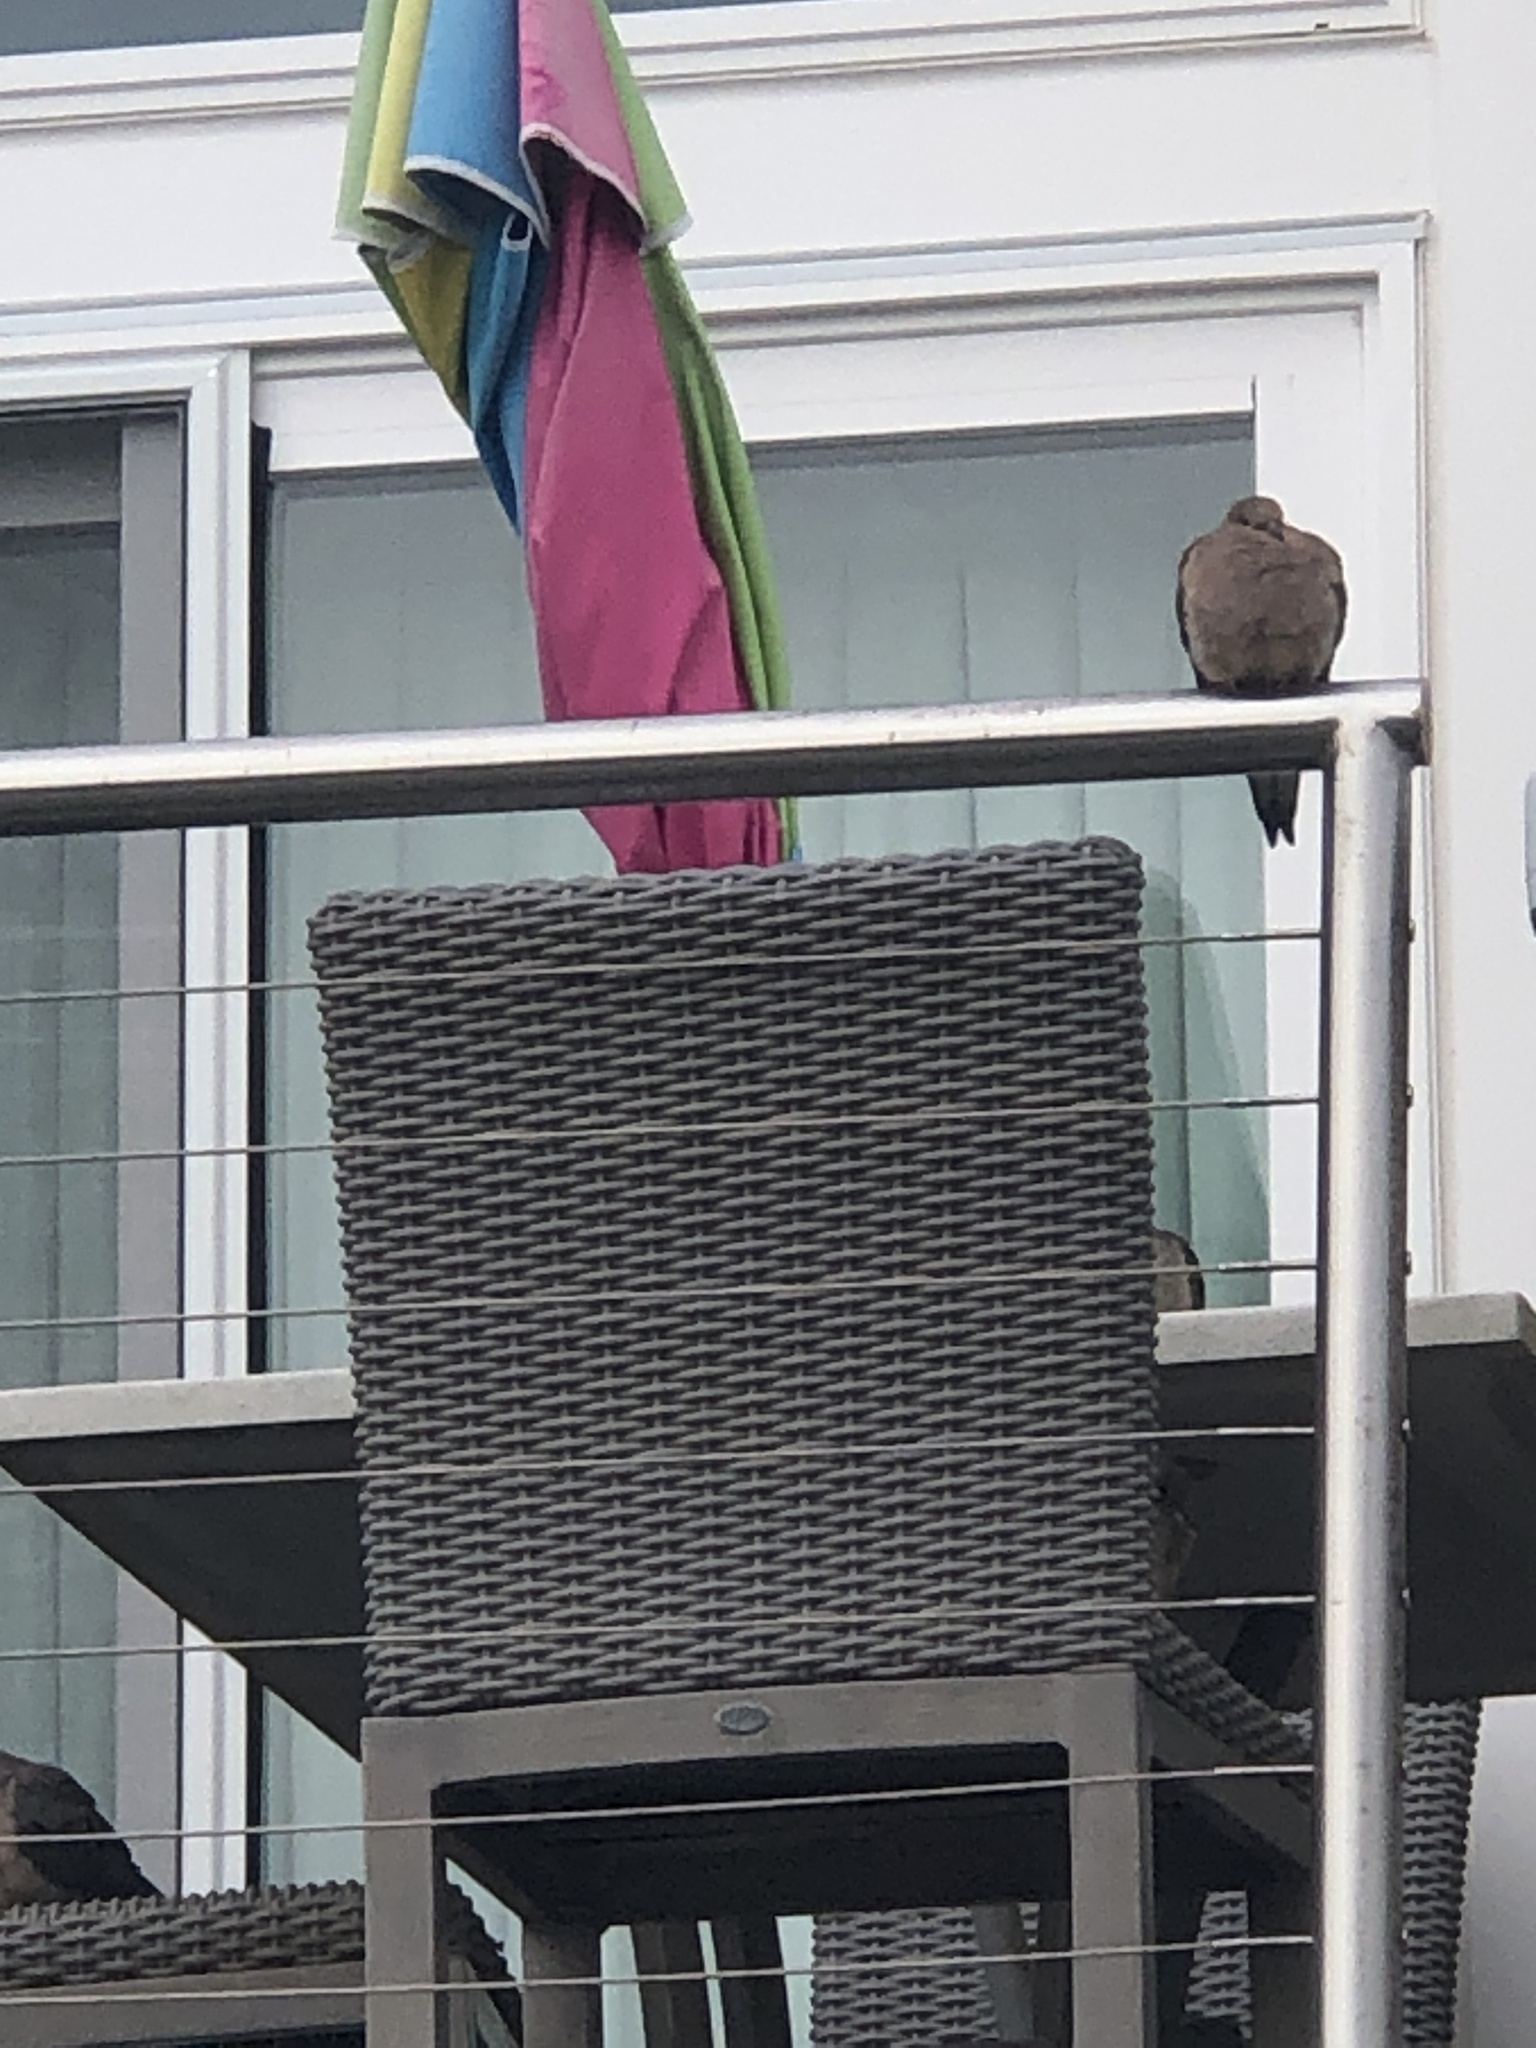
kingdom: Animalia
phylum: Chordata
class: Aves
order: Columbiformes
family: Columbidae
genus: Zenaida
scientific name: Zenaida macroura
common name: Mourning dove
